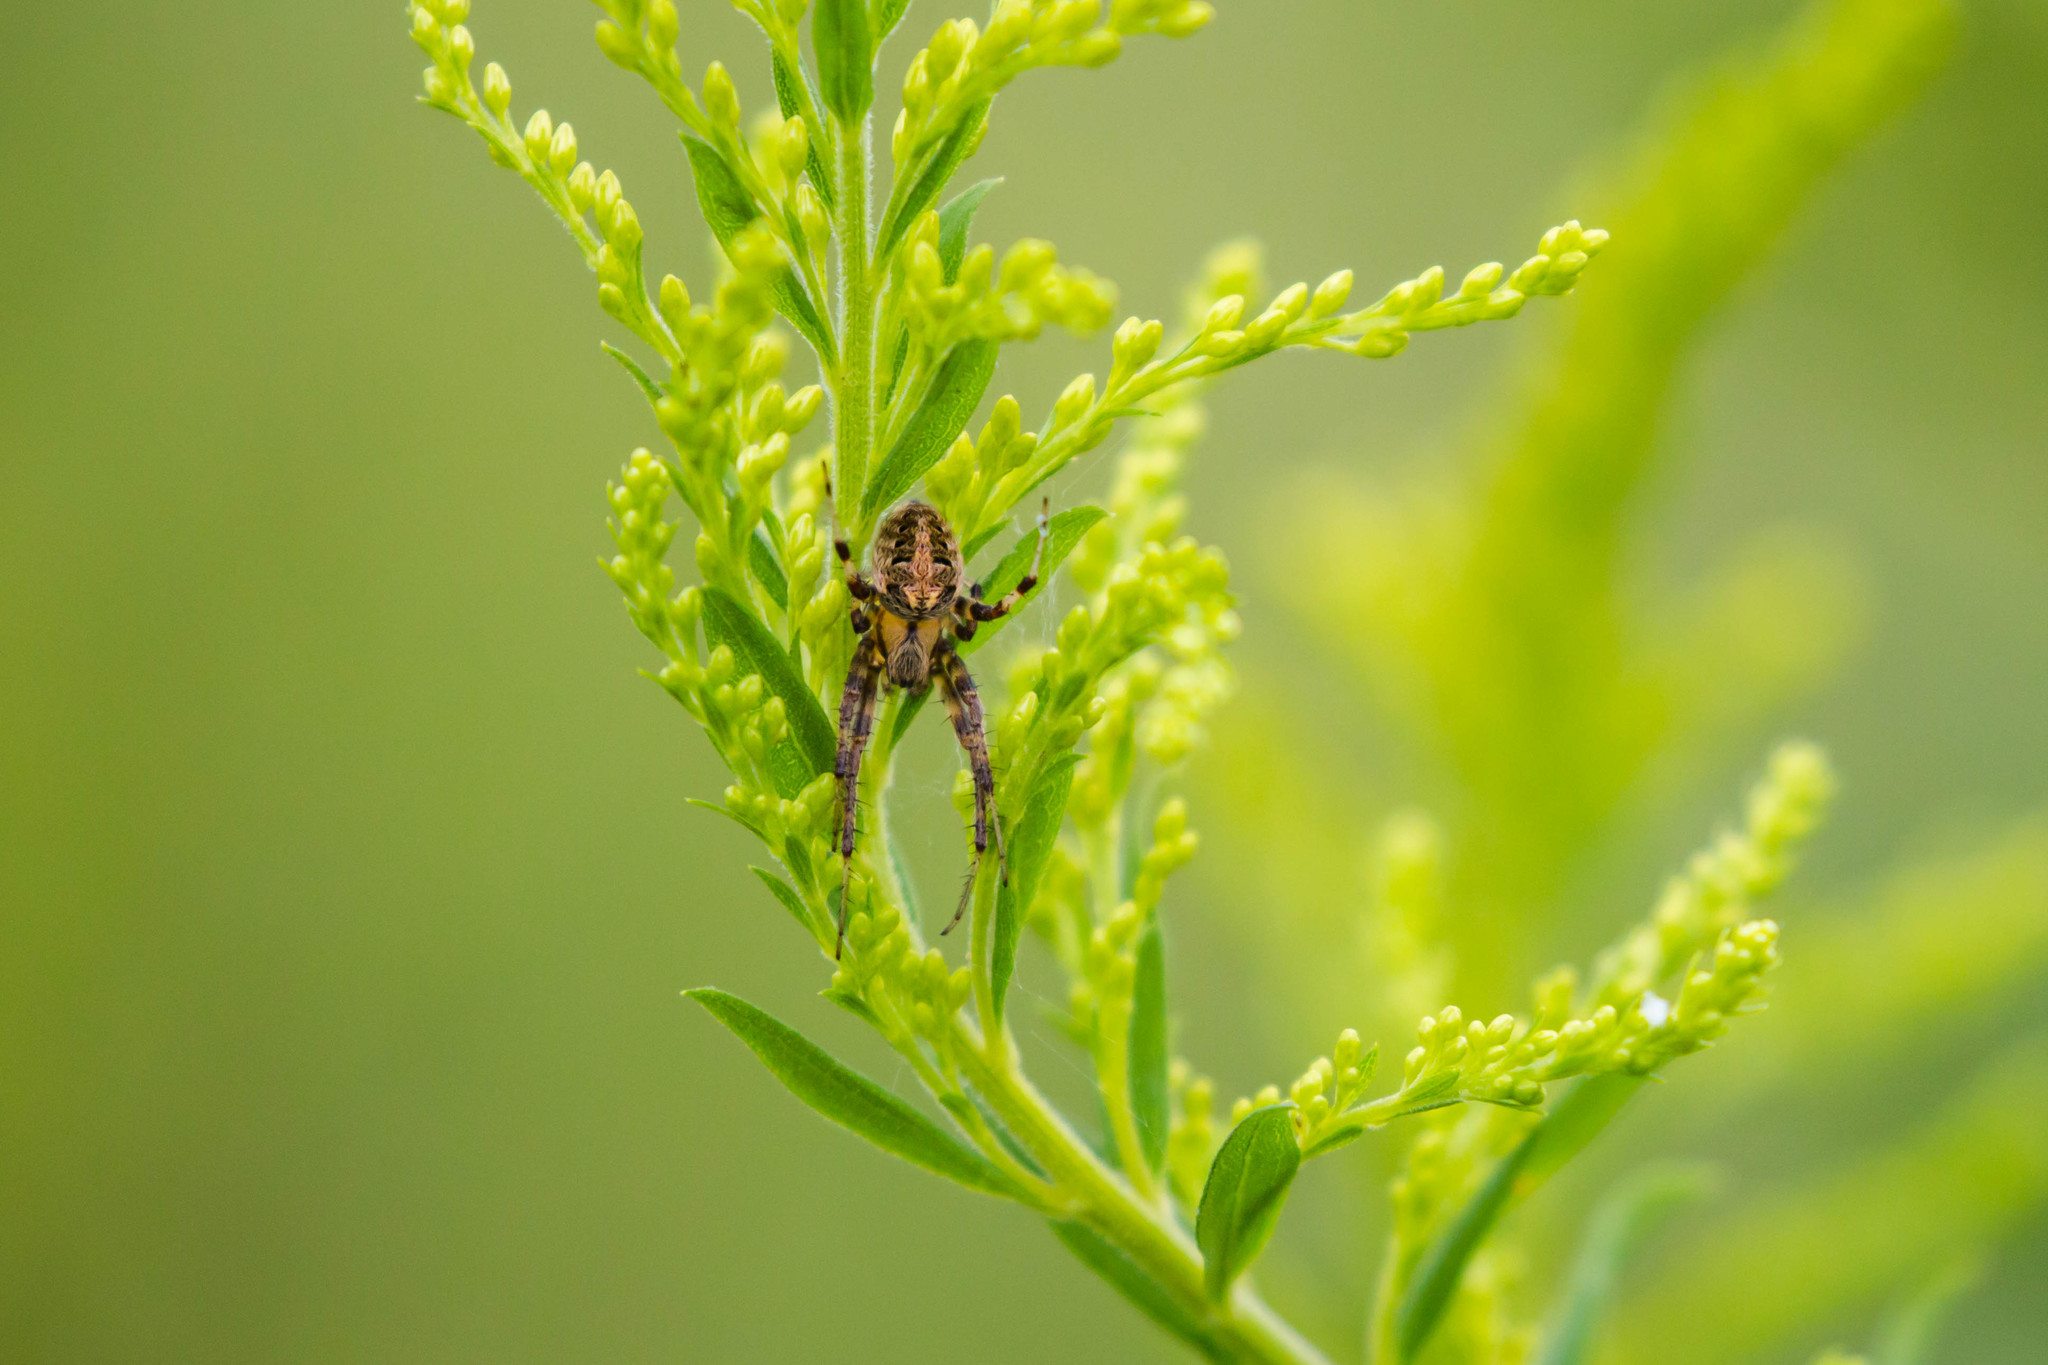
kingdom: Animalia
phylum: Arthropoda
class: Arachnida
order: Araneae
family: Araneidae
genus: Neoscona
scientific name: Neoscona arabesca
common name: Orb weavers
